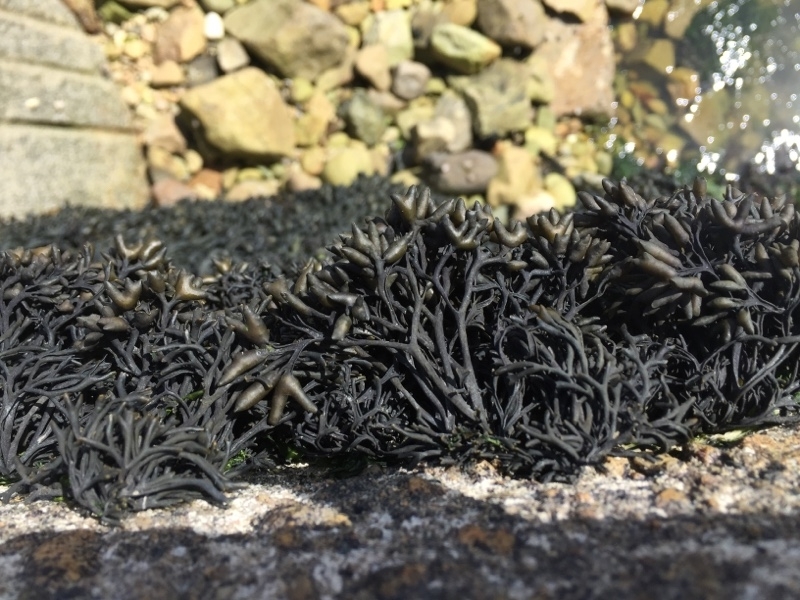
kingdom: Chromista
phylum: Ochrophyta
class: Phaeophyceae
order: Fucales
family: Fucaceae
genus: Pelvetia
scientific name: Pelvetia canaliculata
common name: Channelled wrack
